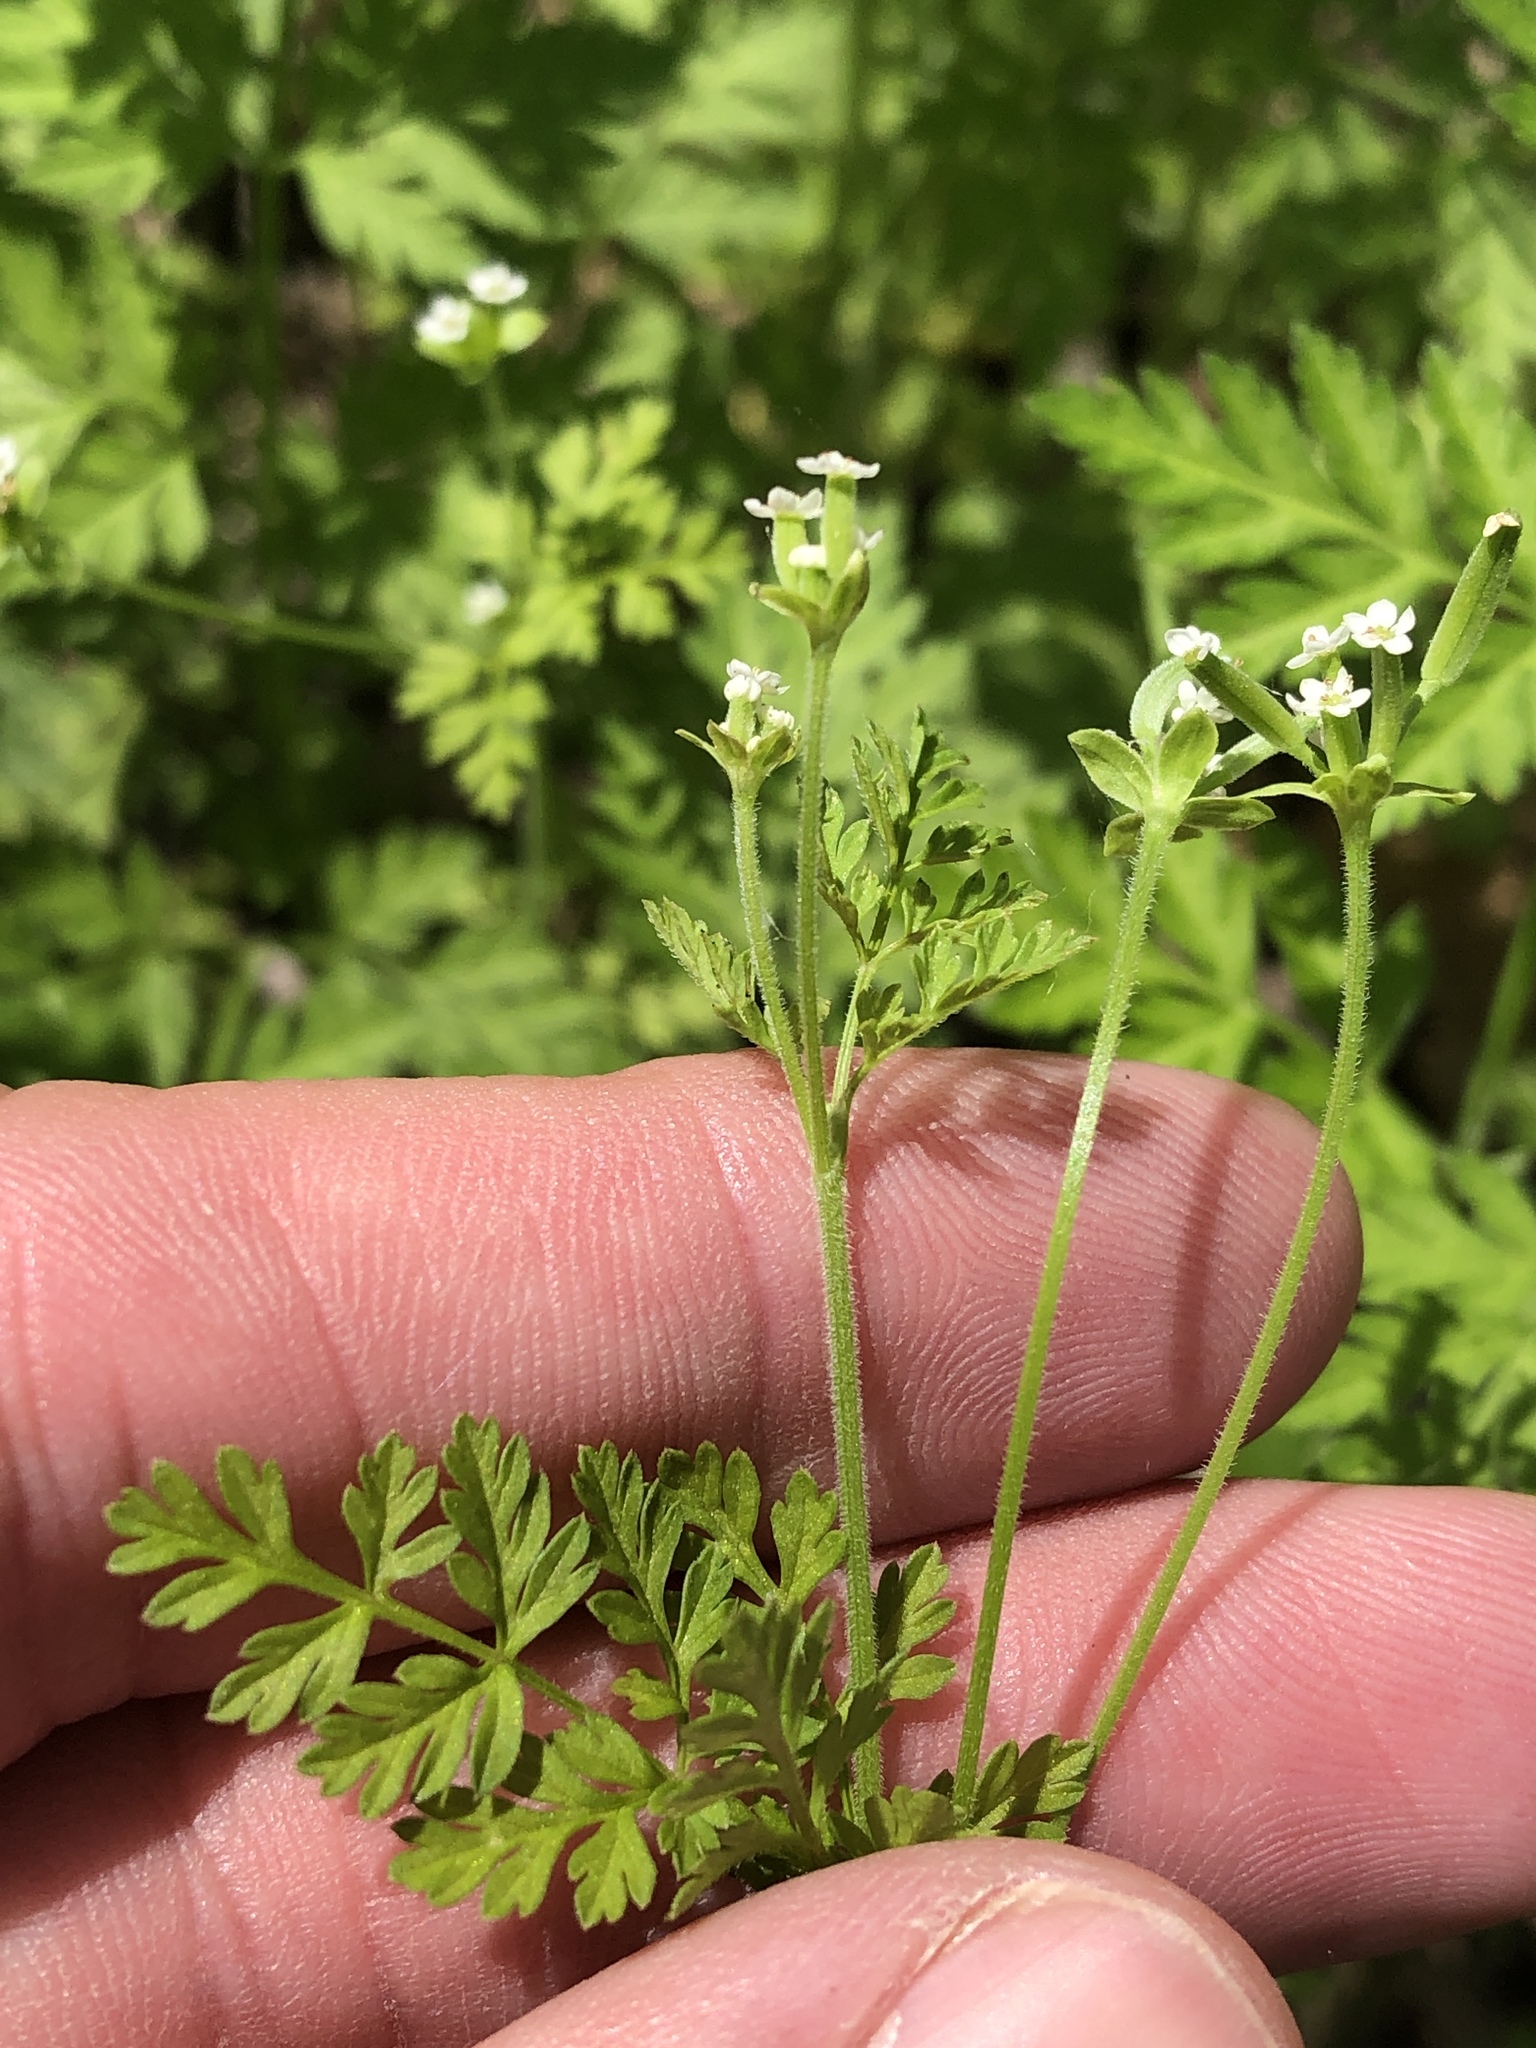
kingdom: Plantae
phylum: Tracheophyta
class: Magnoliopsida
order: Apiales
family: Apiaceae
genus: Chaerophyllum
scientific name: Chaerophyllum tainturieri
